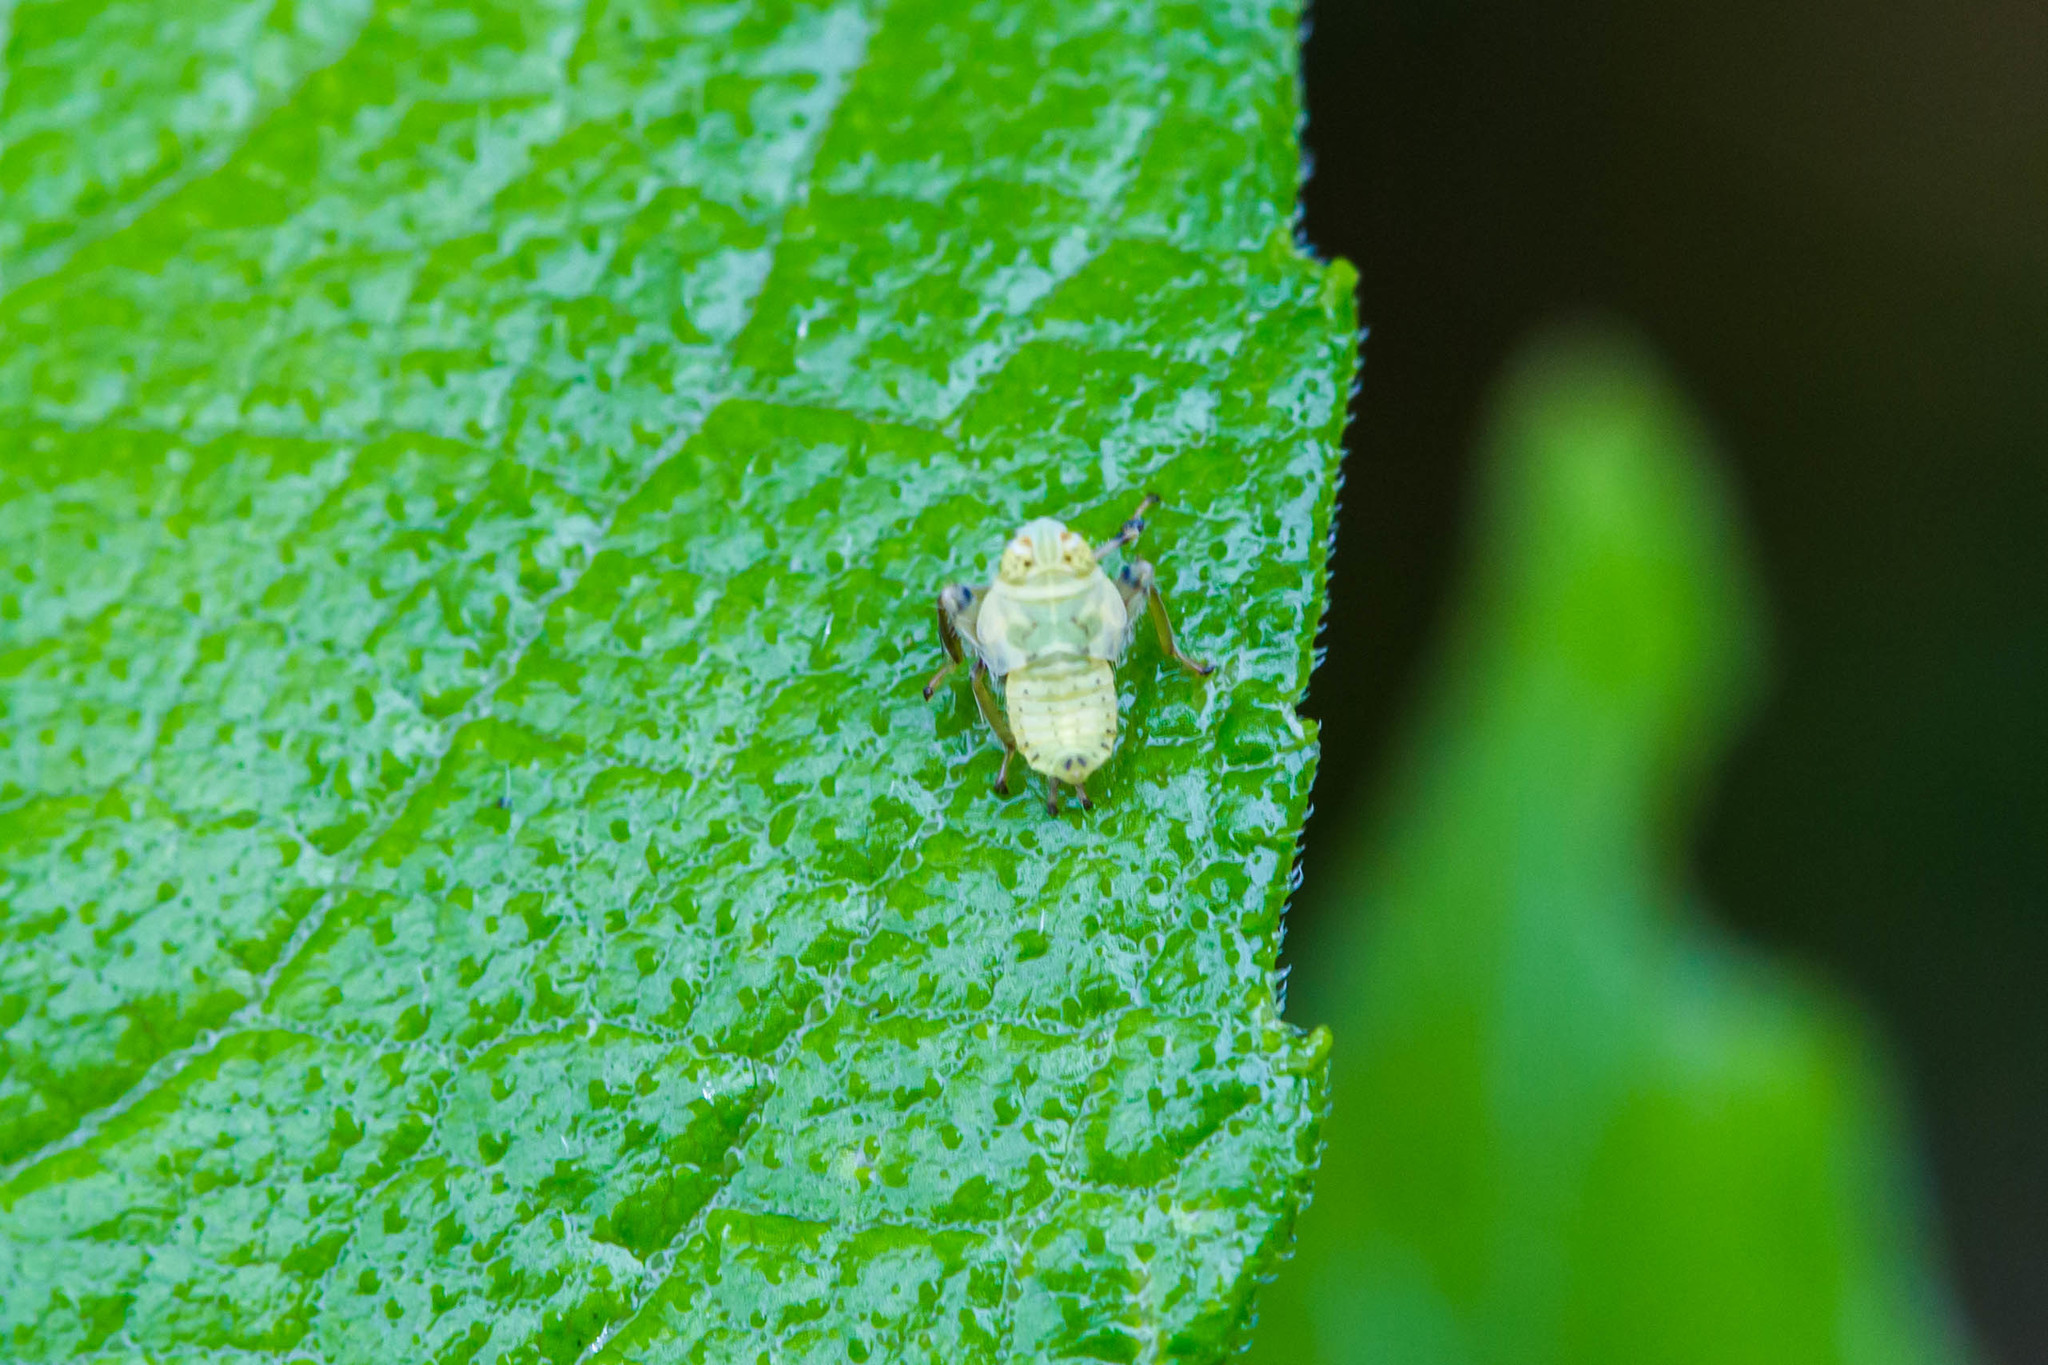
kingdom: Animalia
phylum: Arthropoda
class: Insecta
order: Hemiptera
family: Cicadellidae
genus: Jikradia
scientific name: Jikradia olitoria
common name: Coppery leafhopper
